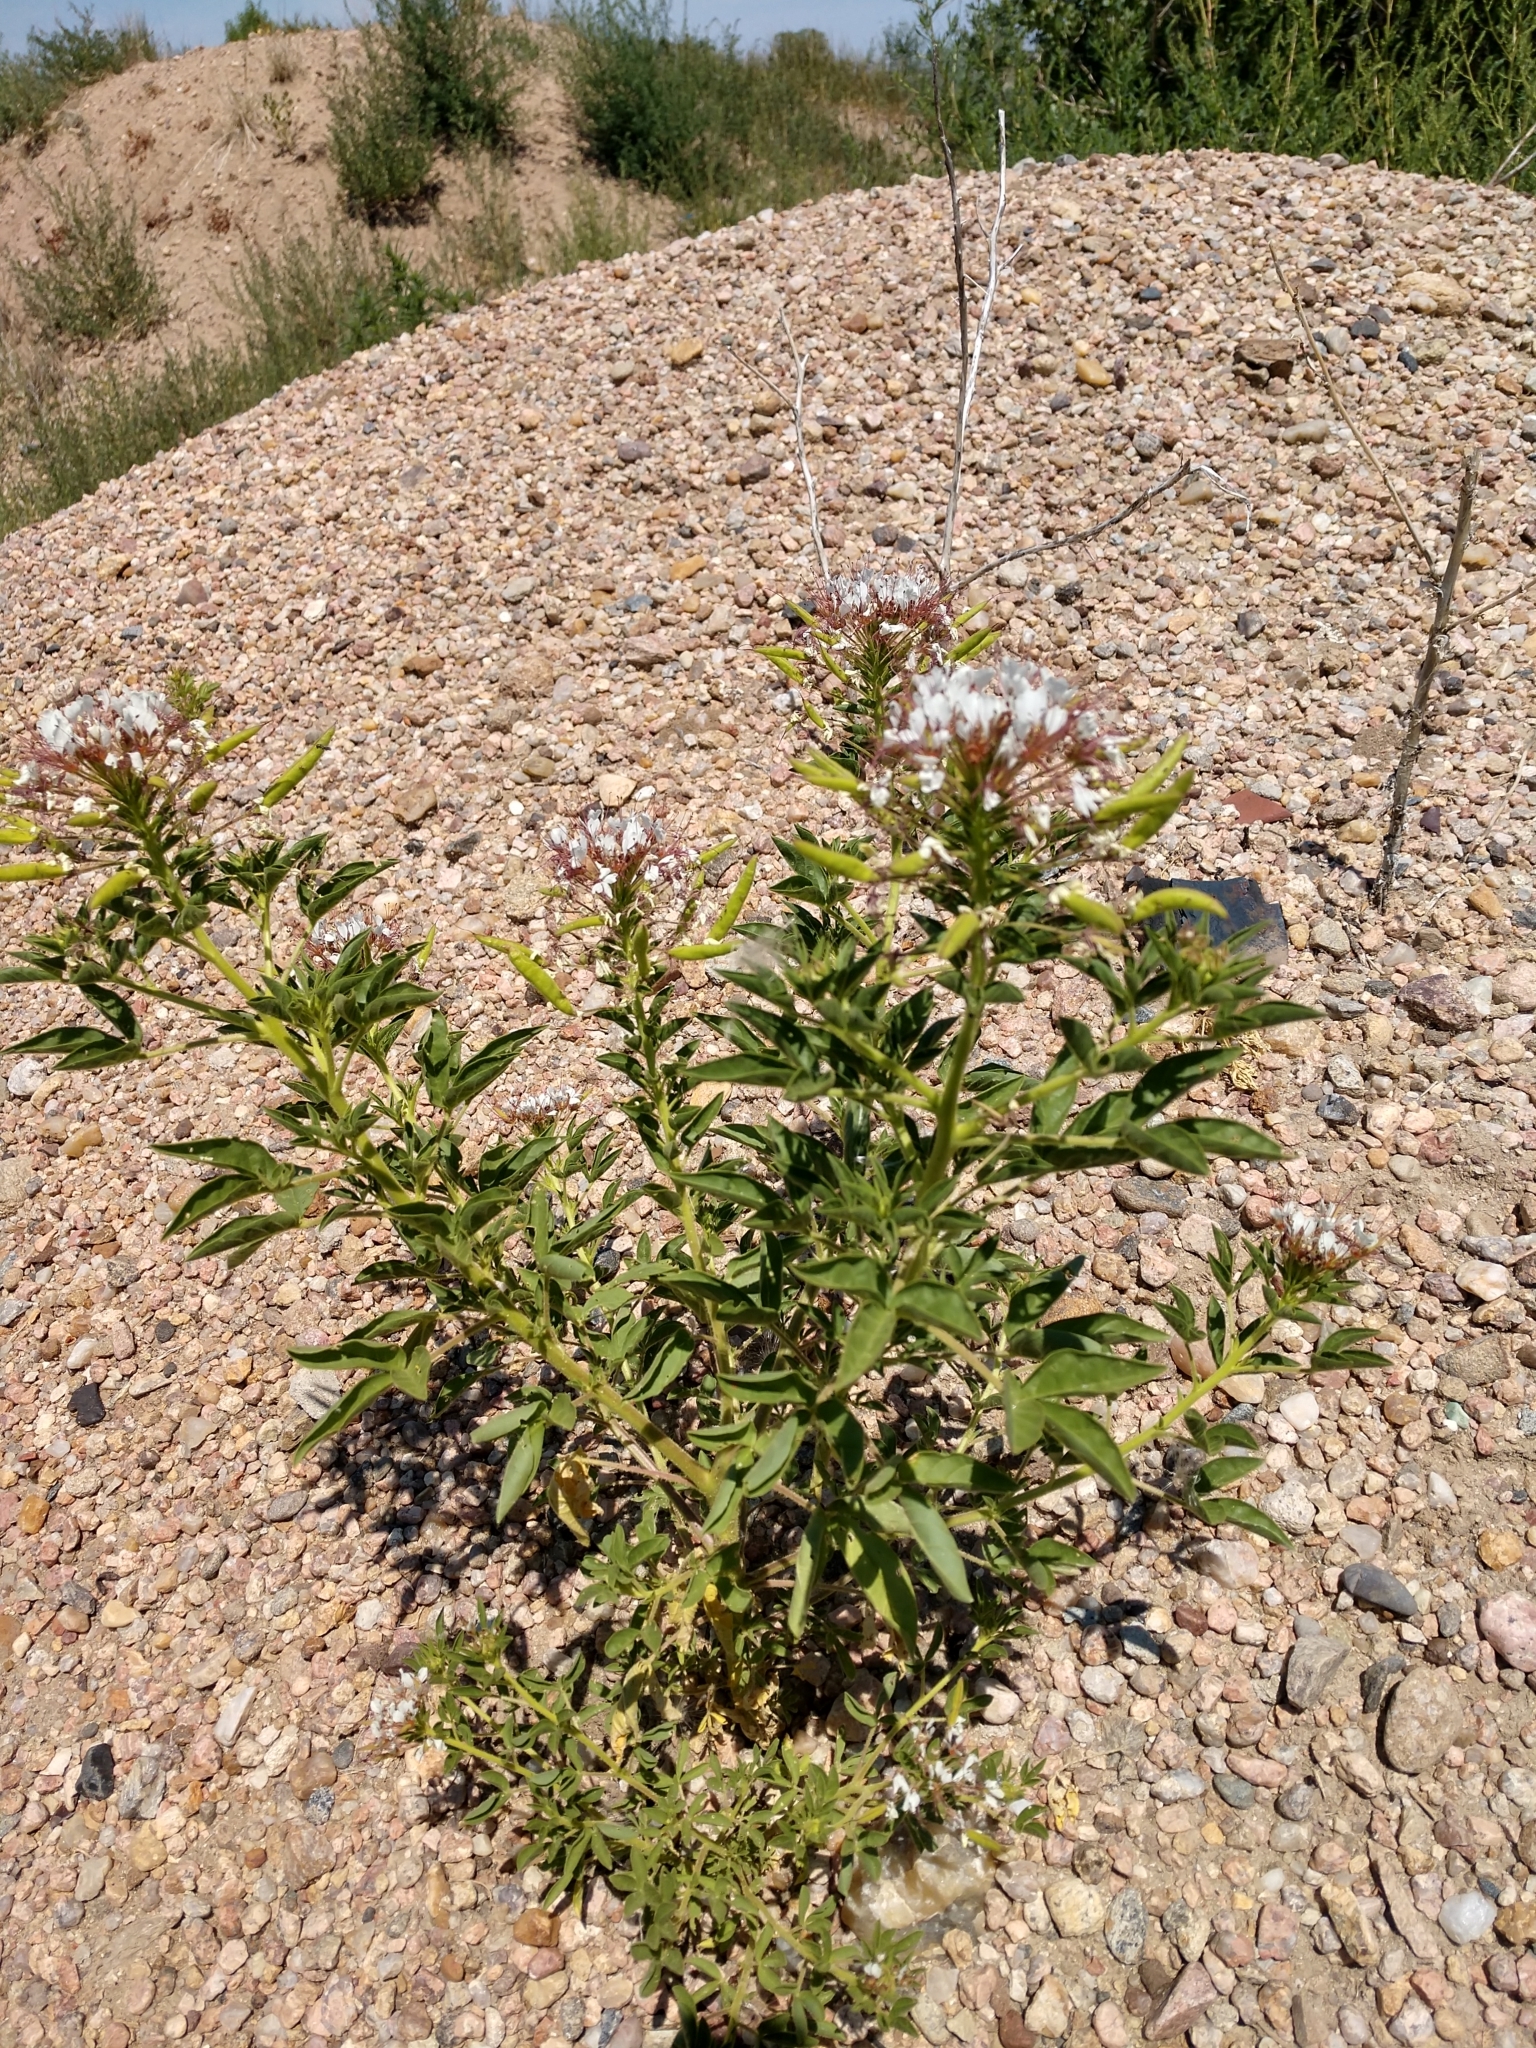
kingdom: Plantae
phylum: Tracheophyta
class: Magnoliopsida
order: Brassicales
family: Cleomaceae
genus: Polanisia
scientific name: Polanisia dodecandra
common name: Clammyweed
